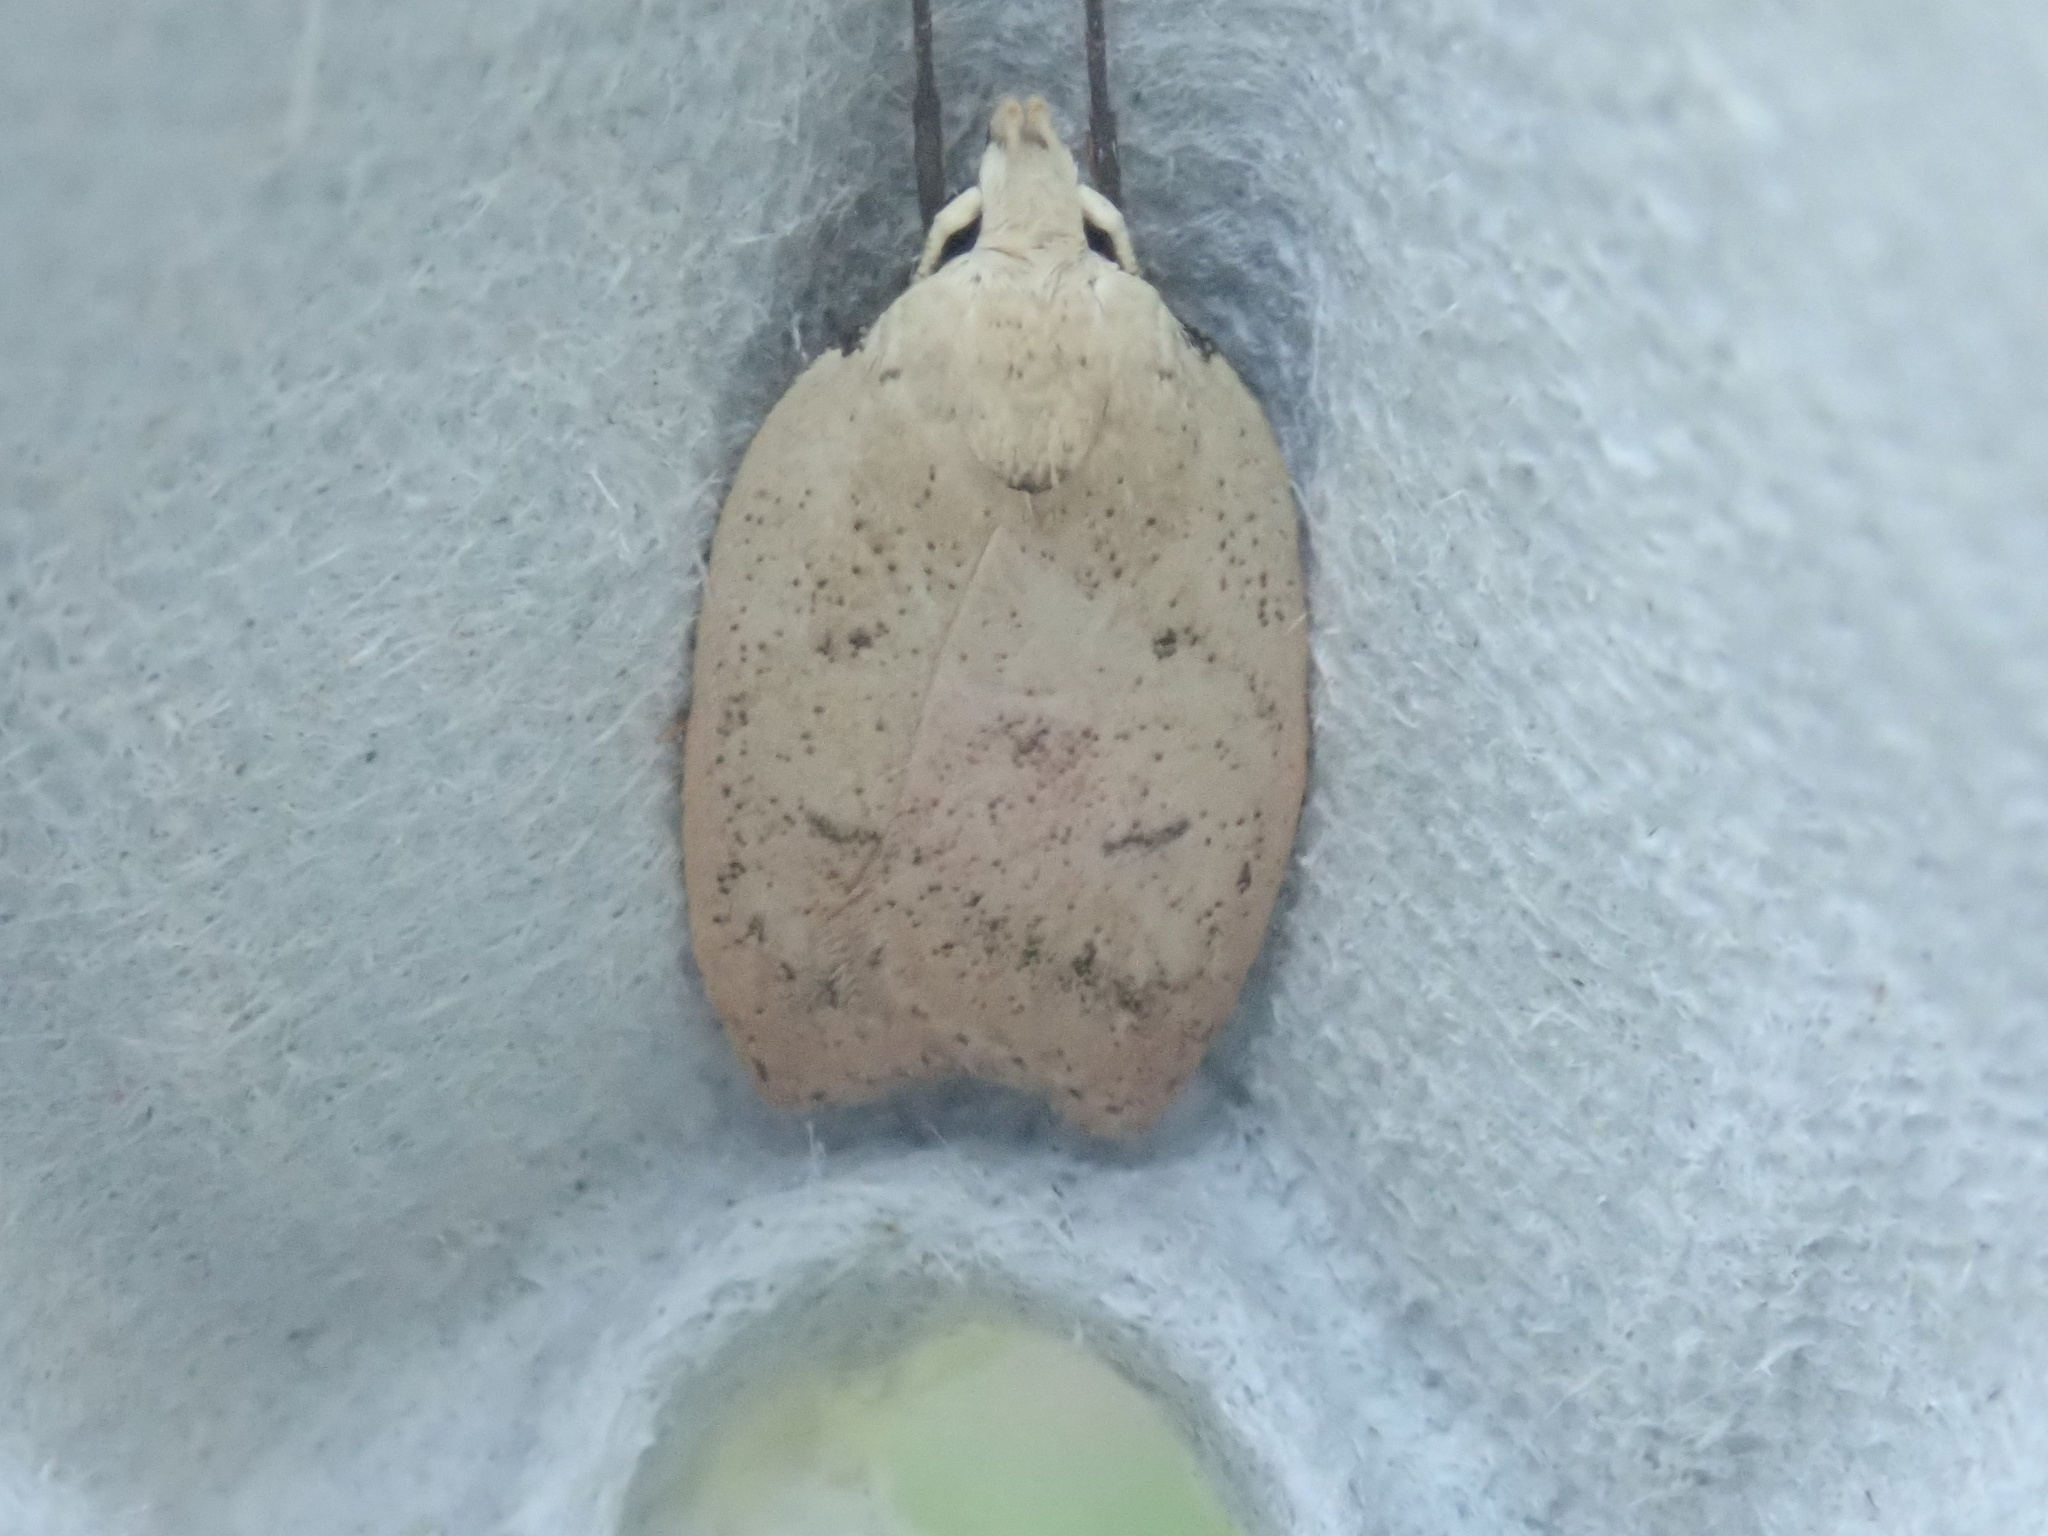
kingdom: Animalia
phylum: Arthropoda
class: Insecta
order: Lepidoptera
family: Peleopodidae
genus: Machimia
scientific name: Machimia tentoriferella
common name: Gold-striped leaftier moth
